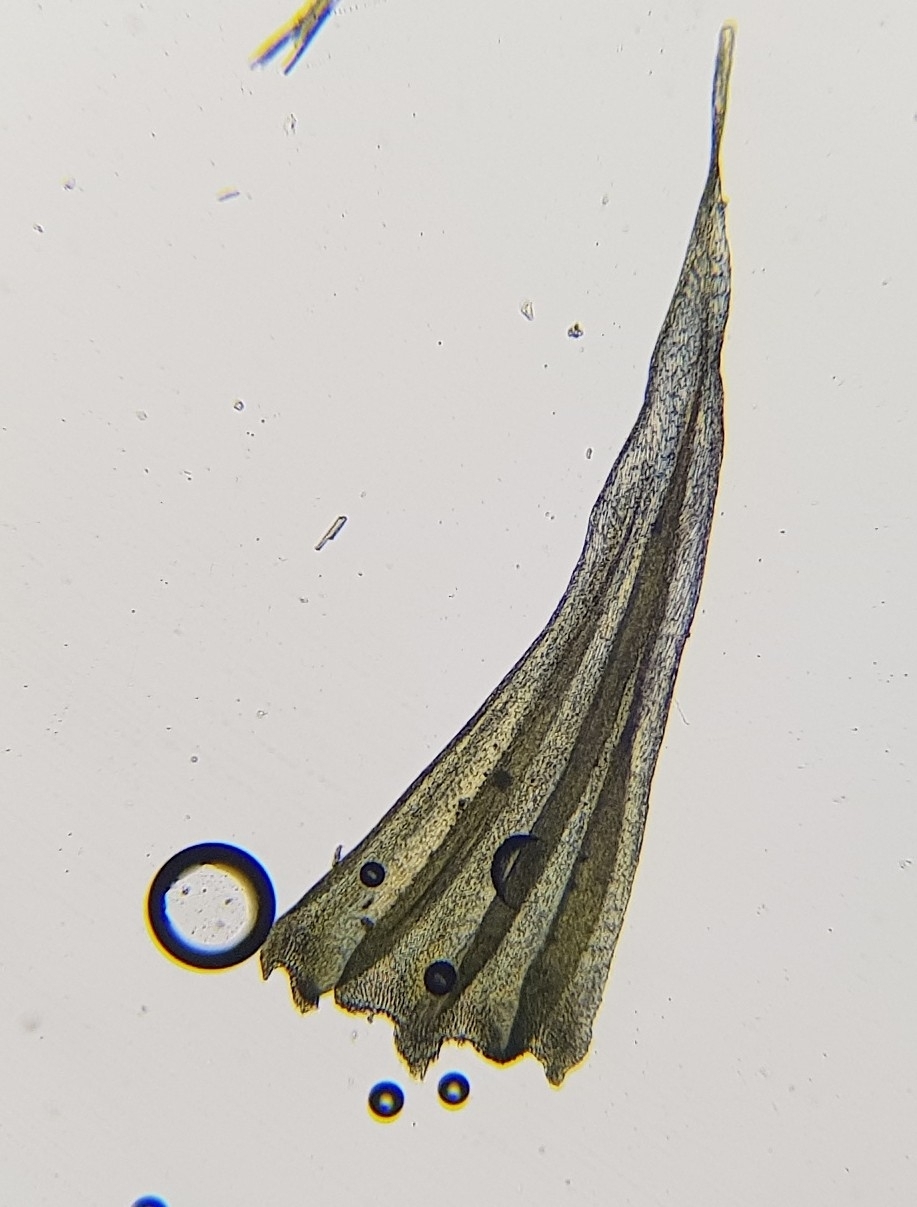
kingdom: Plantae
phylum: Bryophyta
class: Bryopsida
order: Hypnales
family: Brachytheciaceae
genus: Homalothecium
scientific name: Homalothecium lutescens
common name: Yellow feather-moss
